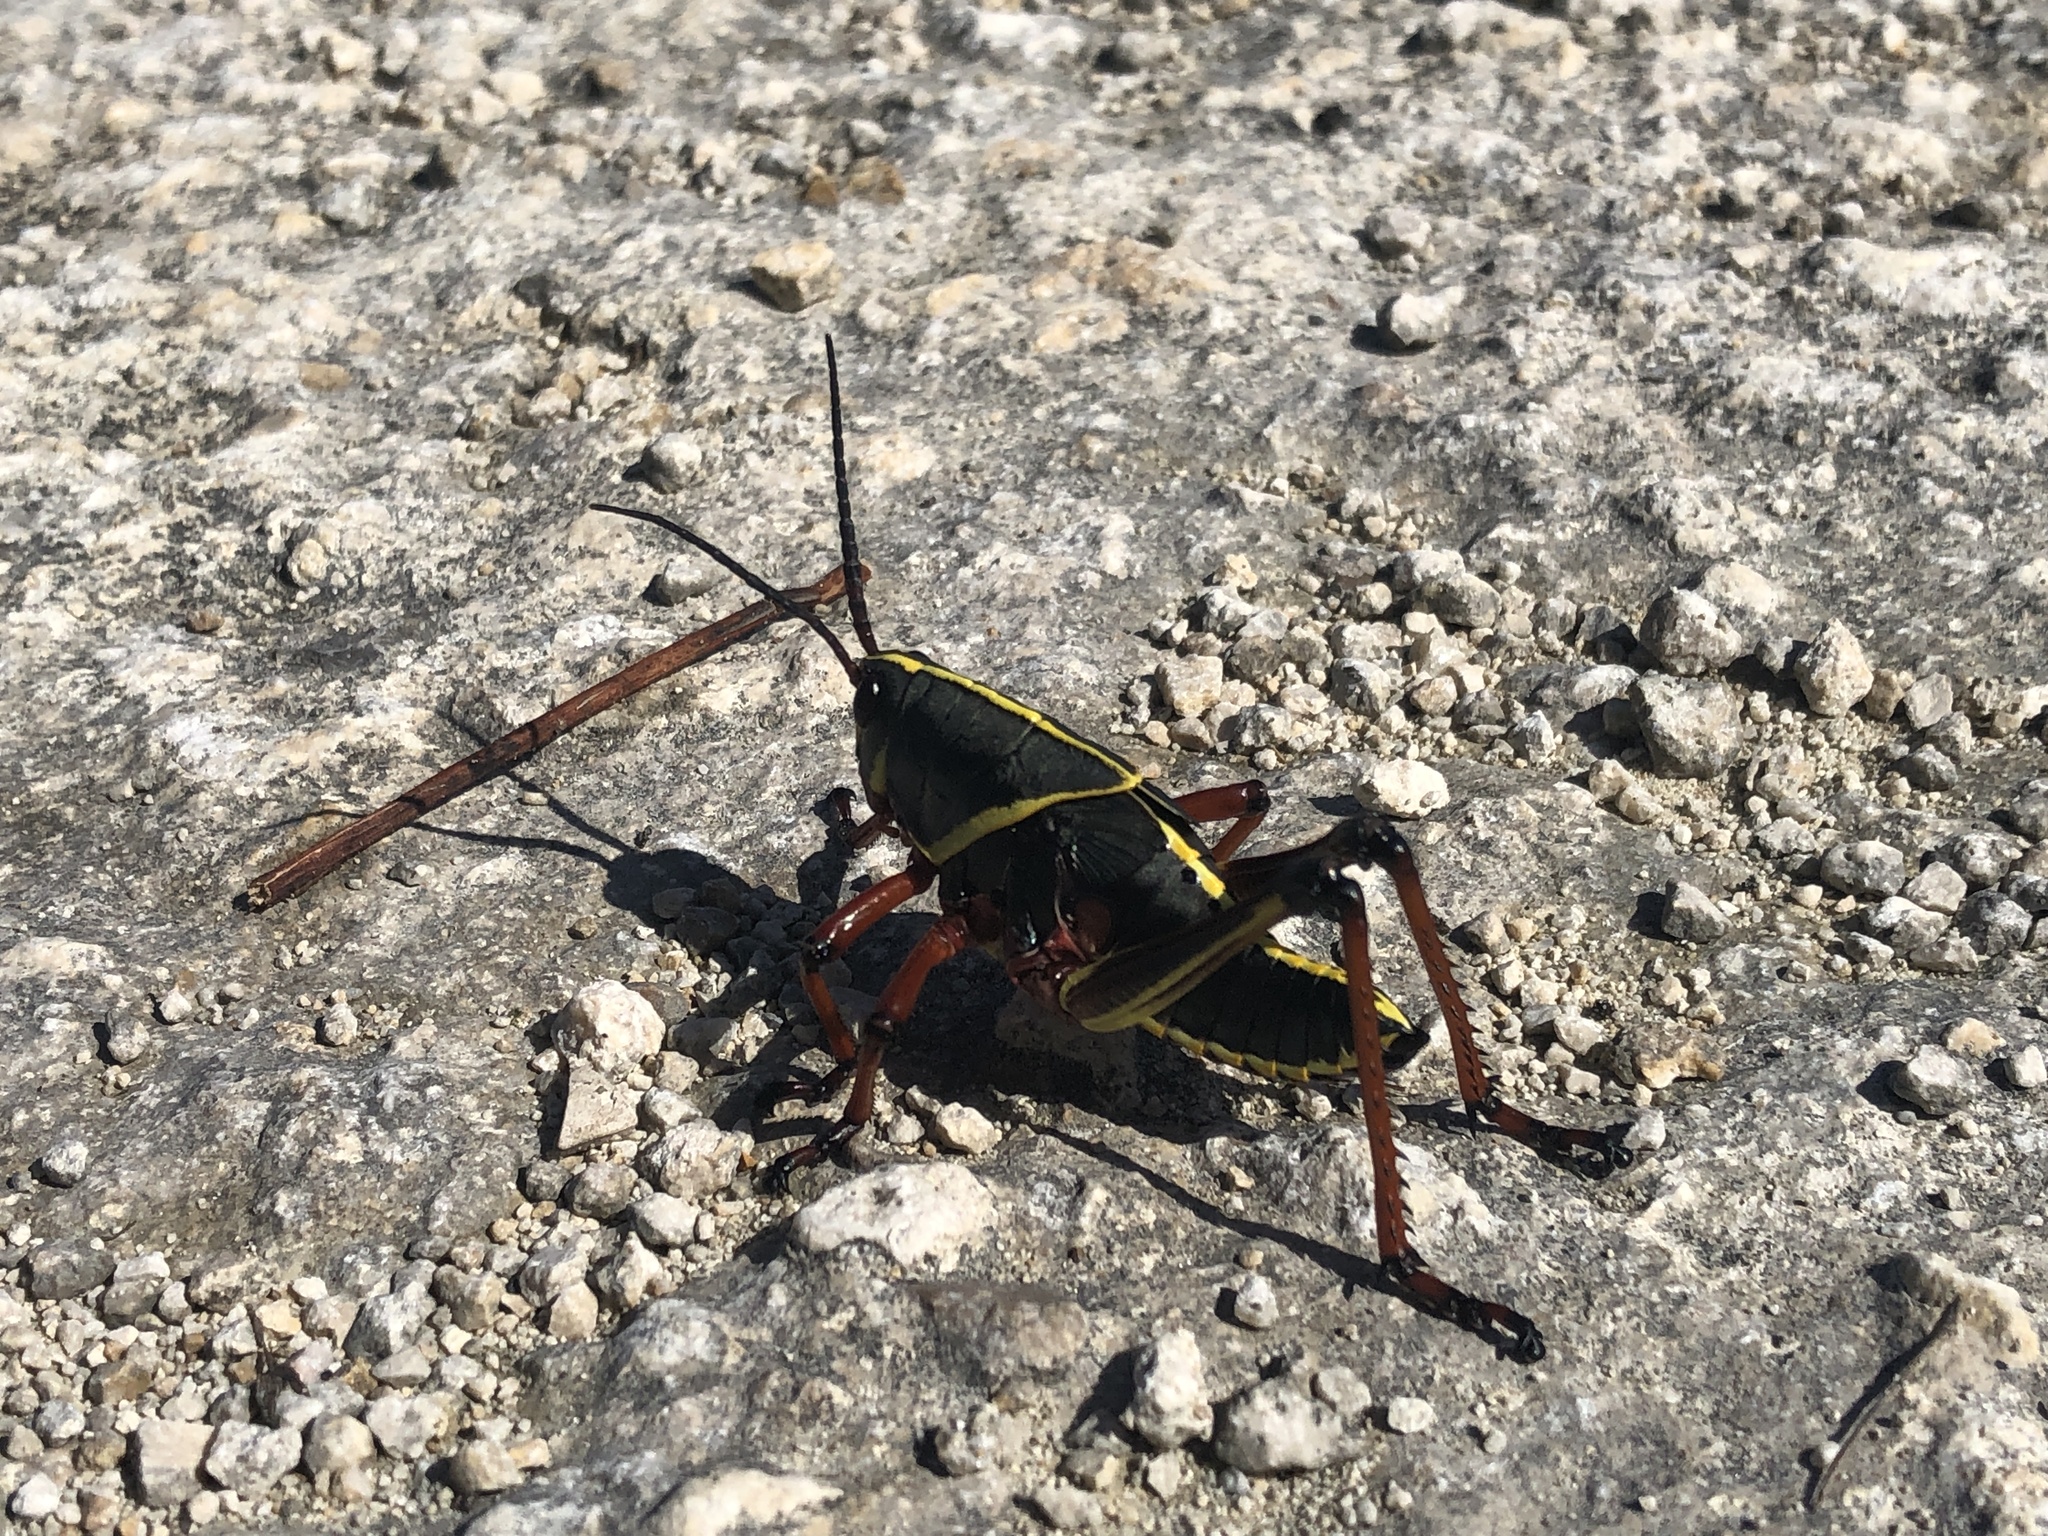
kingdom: Animalia
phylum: Arthropoda
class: Insecta
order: Orthoptera
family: Romaleidae
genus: Romalea
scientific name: Romalea microptera
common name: Eastern lubber grasshopper
